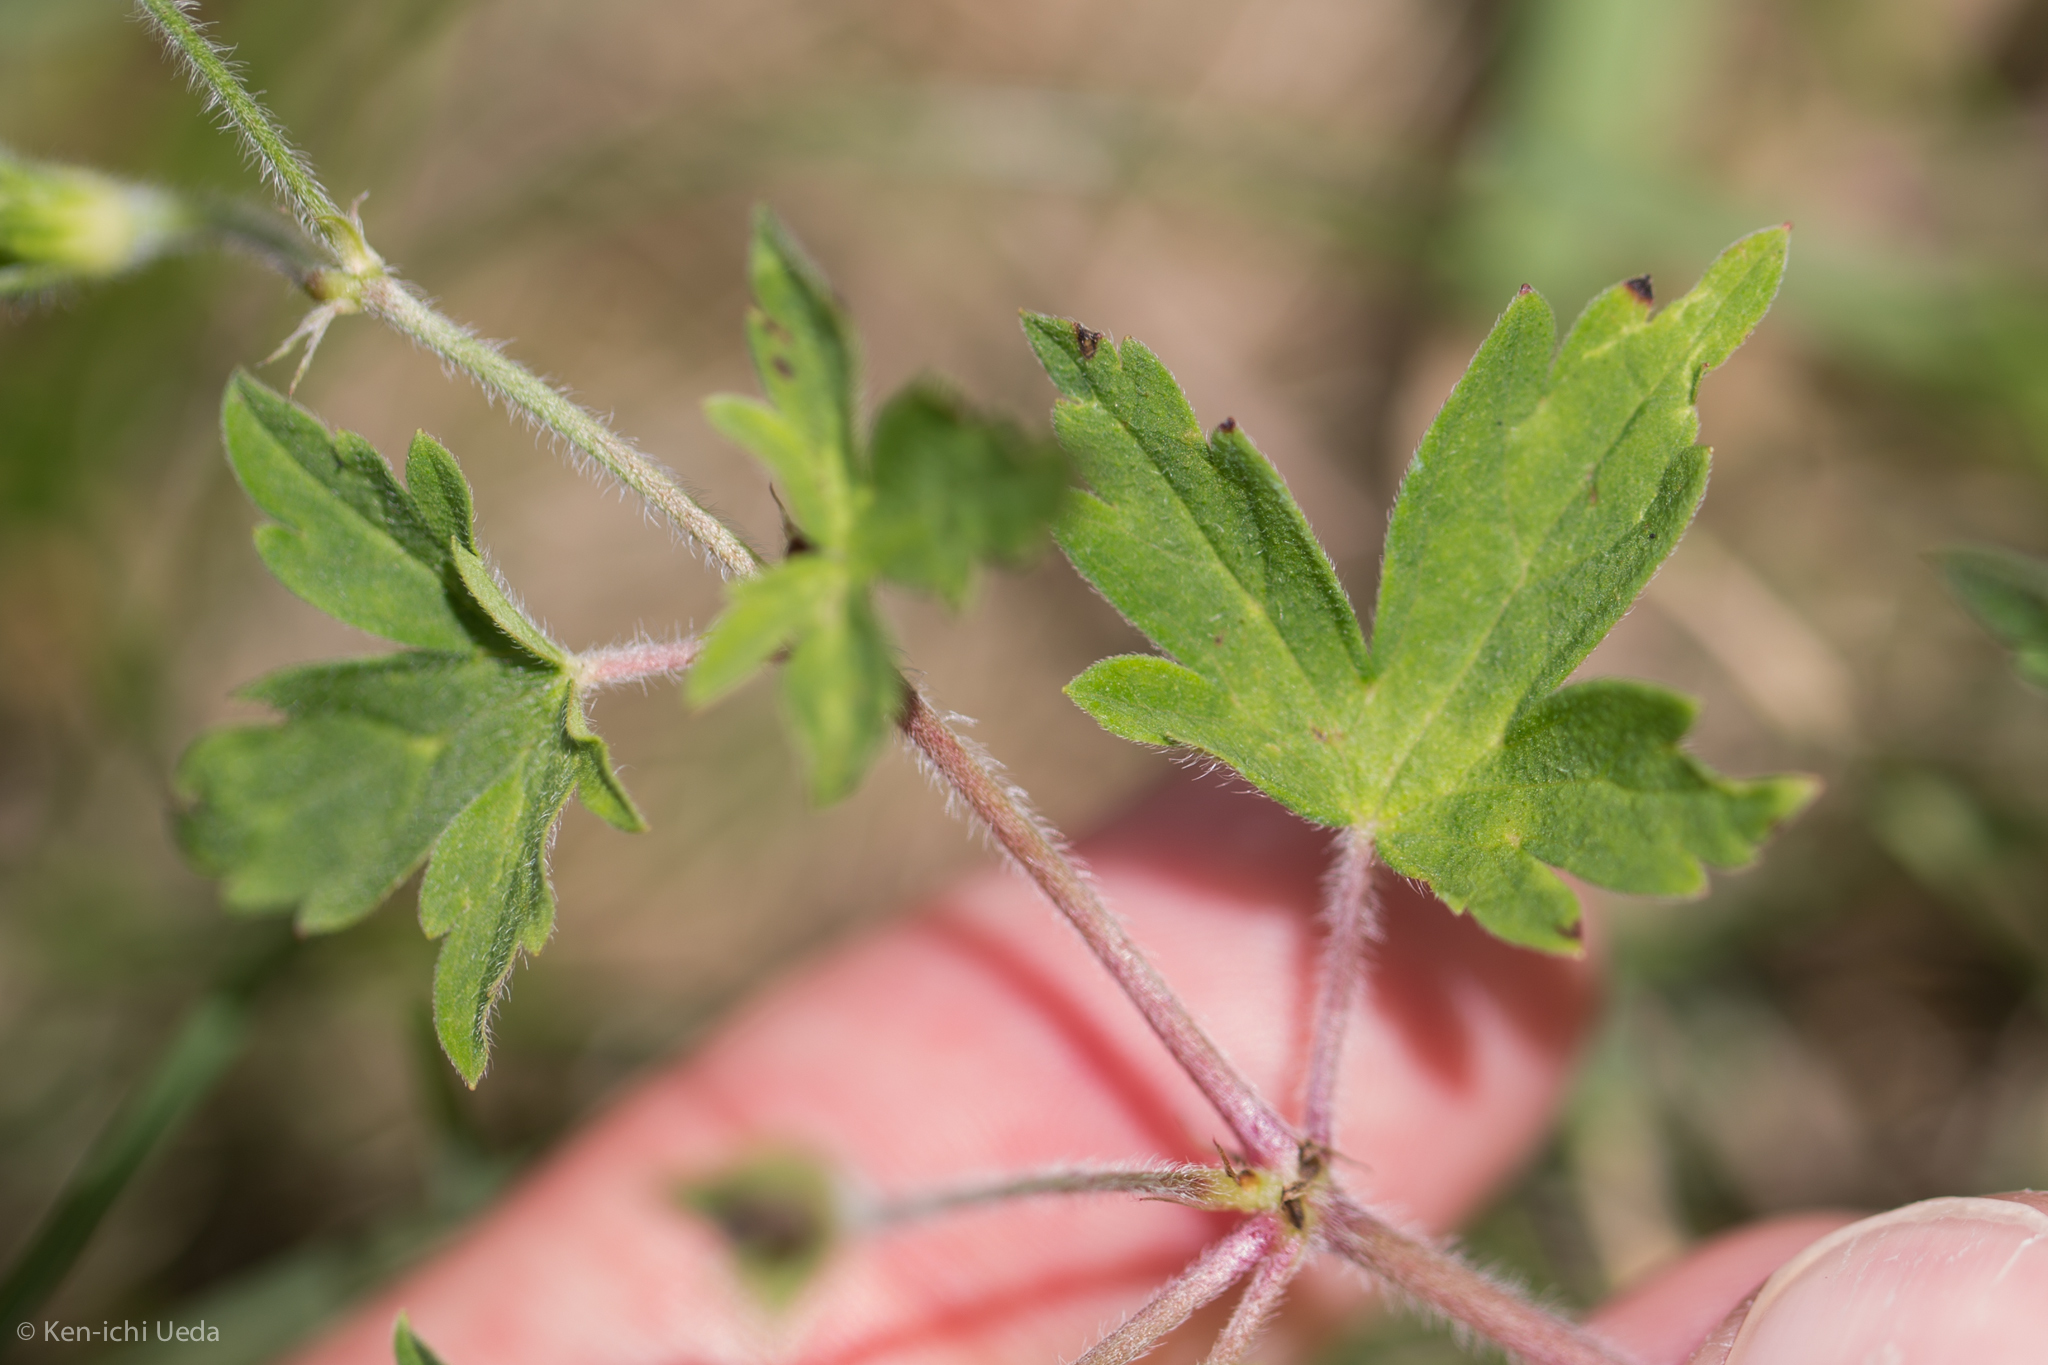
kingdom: Plantae
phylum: Tracheophyta
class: Magnoliopsida
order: Geraniales
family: Geraniaceae
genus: Geranium
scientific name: Geranium sibiricum
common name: Siberian crane's-bill
